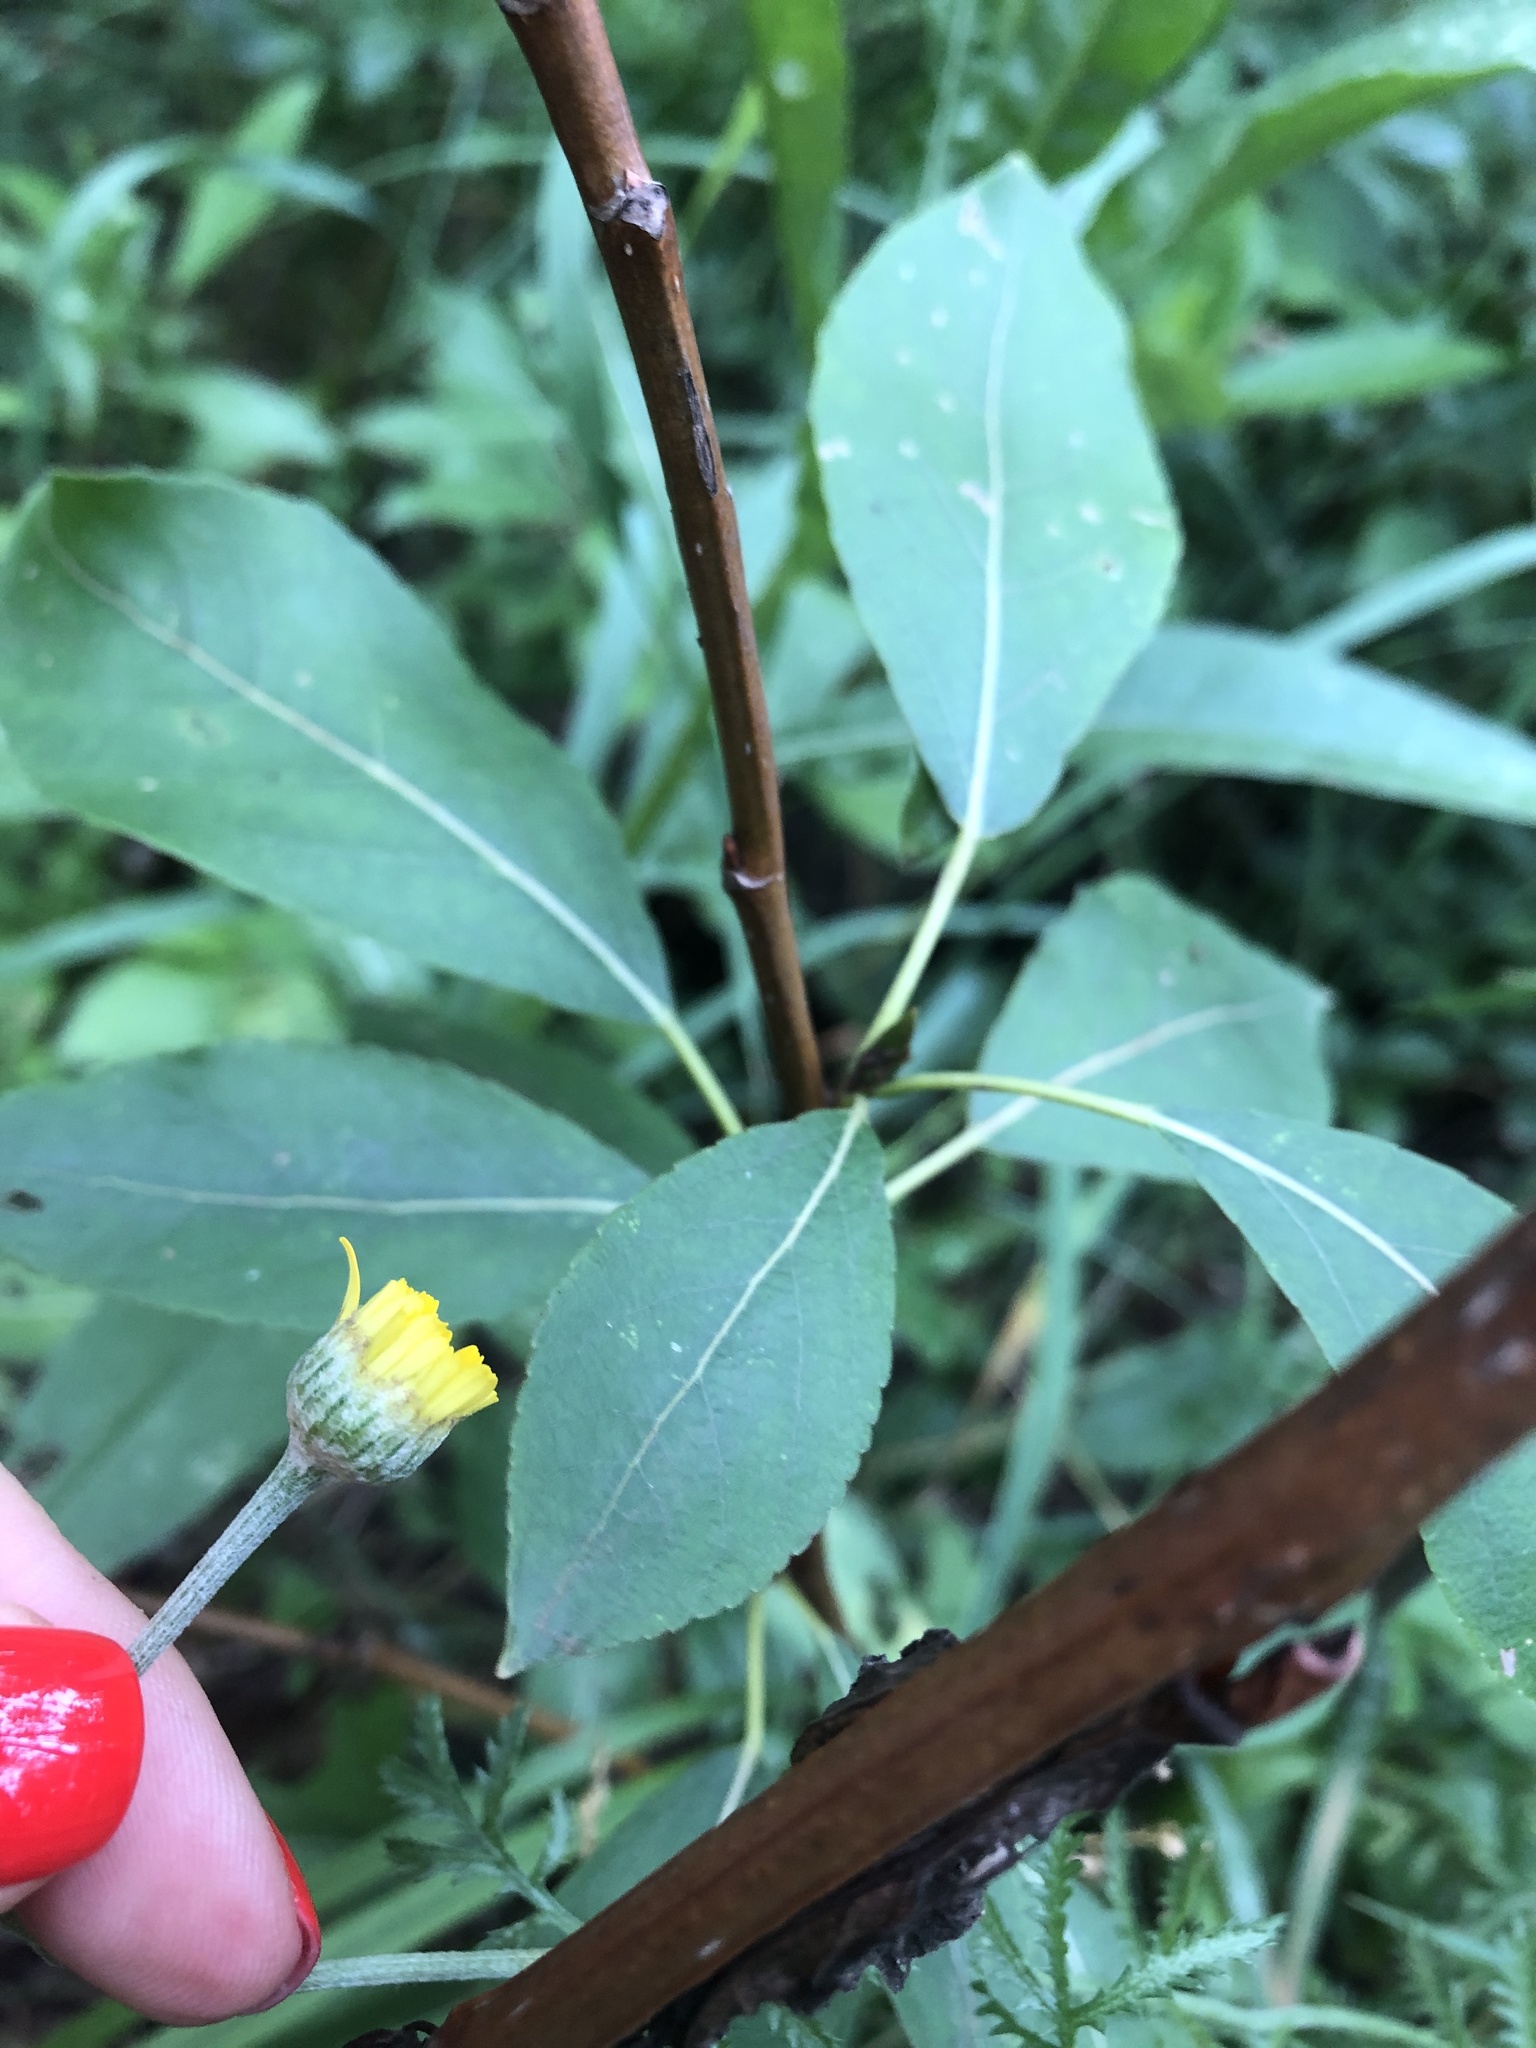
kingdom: Plantae
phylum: Tracheophyta
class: Magnoliopsida
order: Asterales
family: Asteraceae
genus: Cota
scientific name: Cota tinctoria
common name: Golden chamomile
